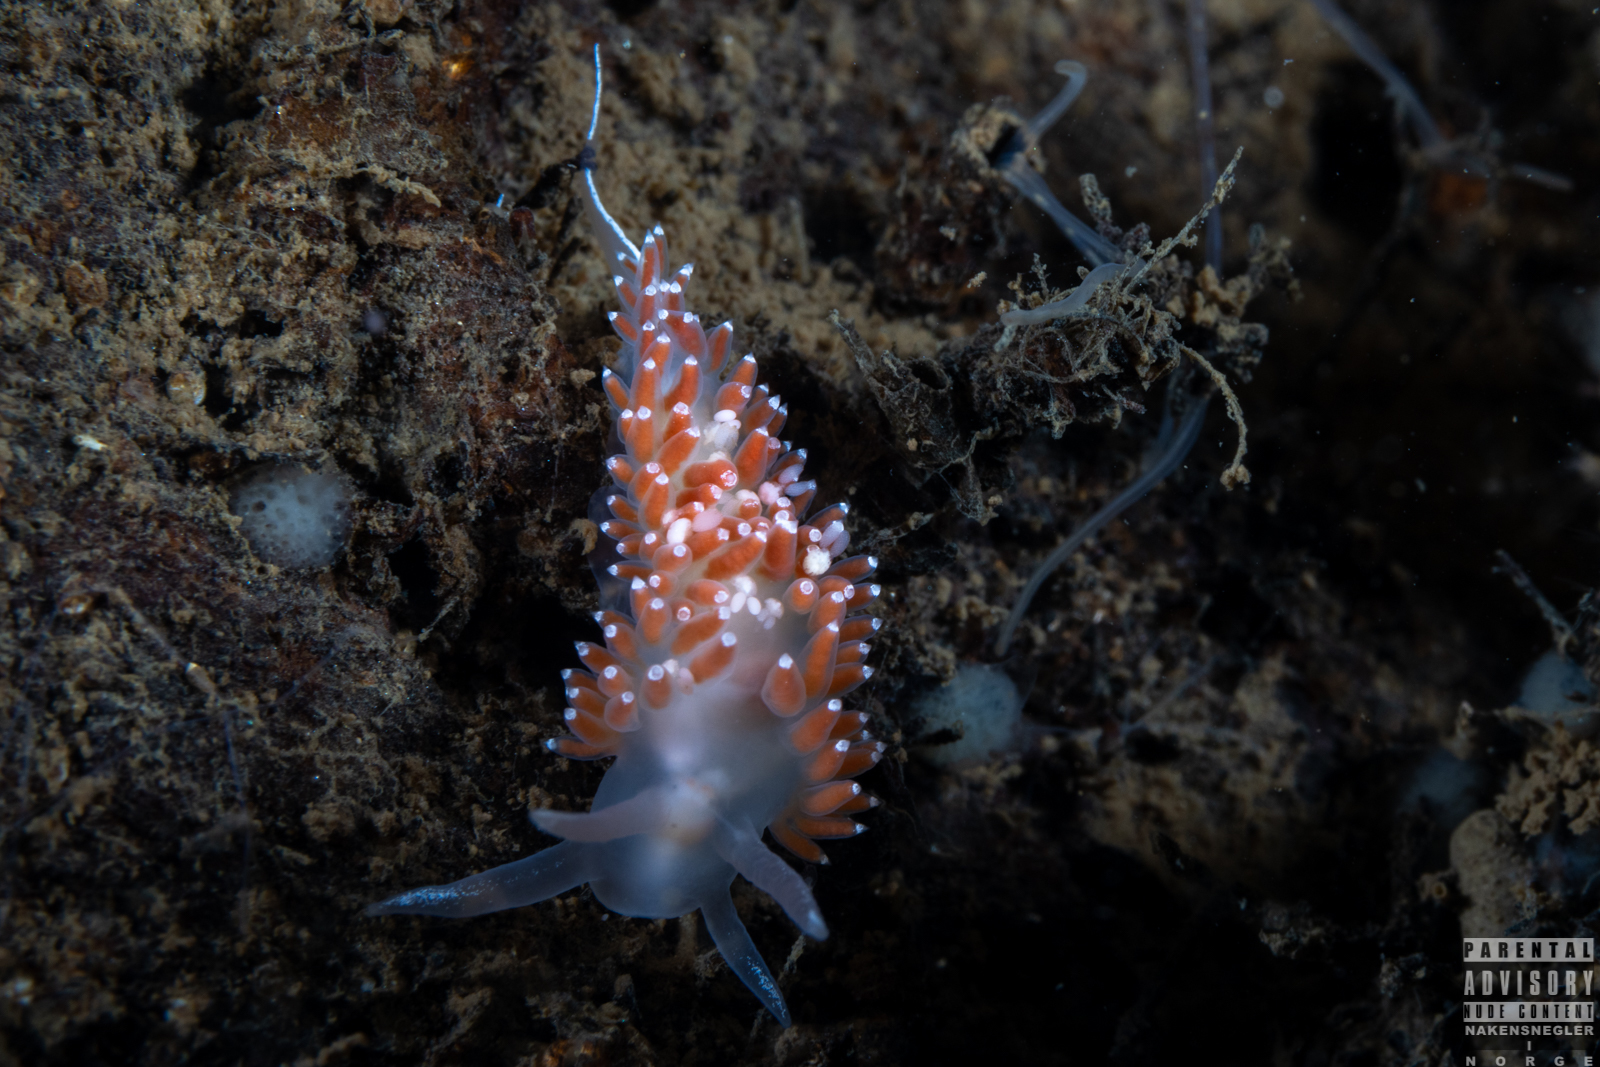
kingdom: Animalia
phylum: Mollusca
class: Gastropoda
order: Nudibranchia
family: Coryphellidae
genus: Coryphella
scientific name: Coryphella verrucosa
